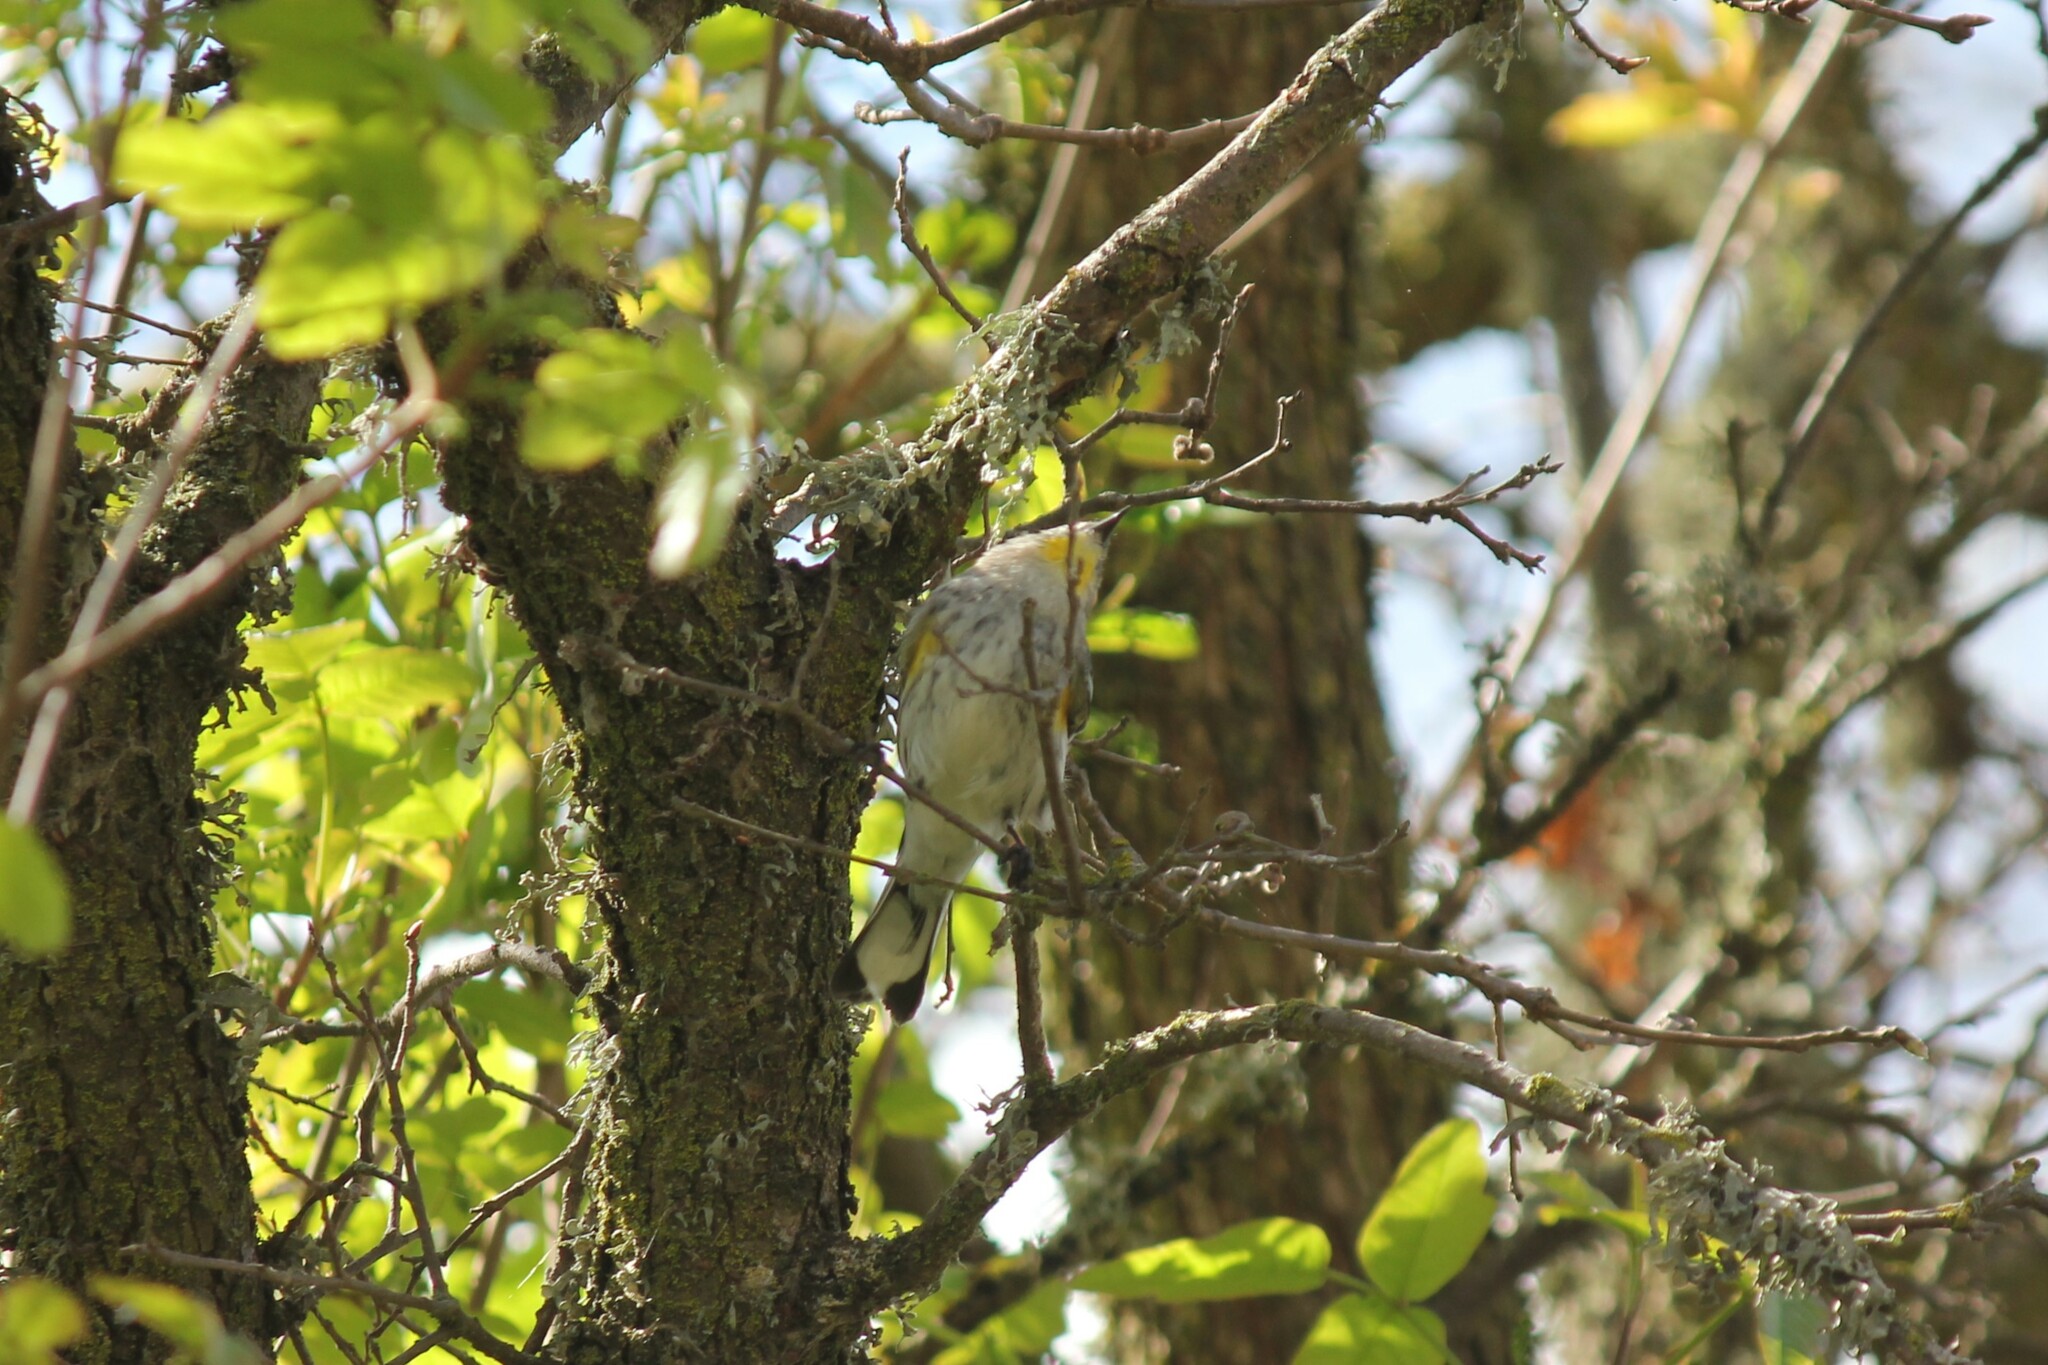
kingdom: Animalia
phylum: Chordata
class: Aves
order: Passeriformes
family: Parulidae
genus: Setophaga
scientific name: Setophaga coronata
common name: Myrtle warbler
